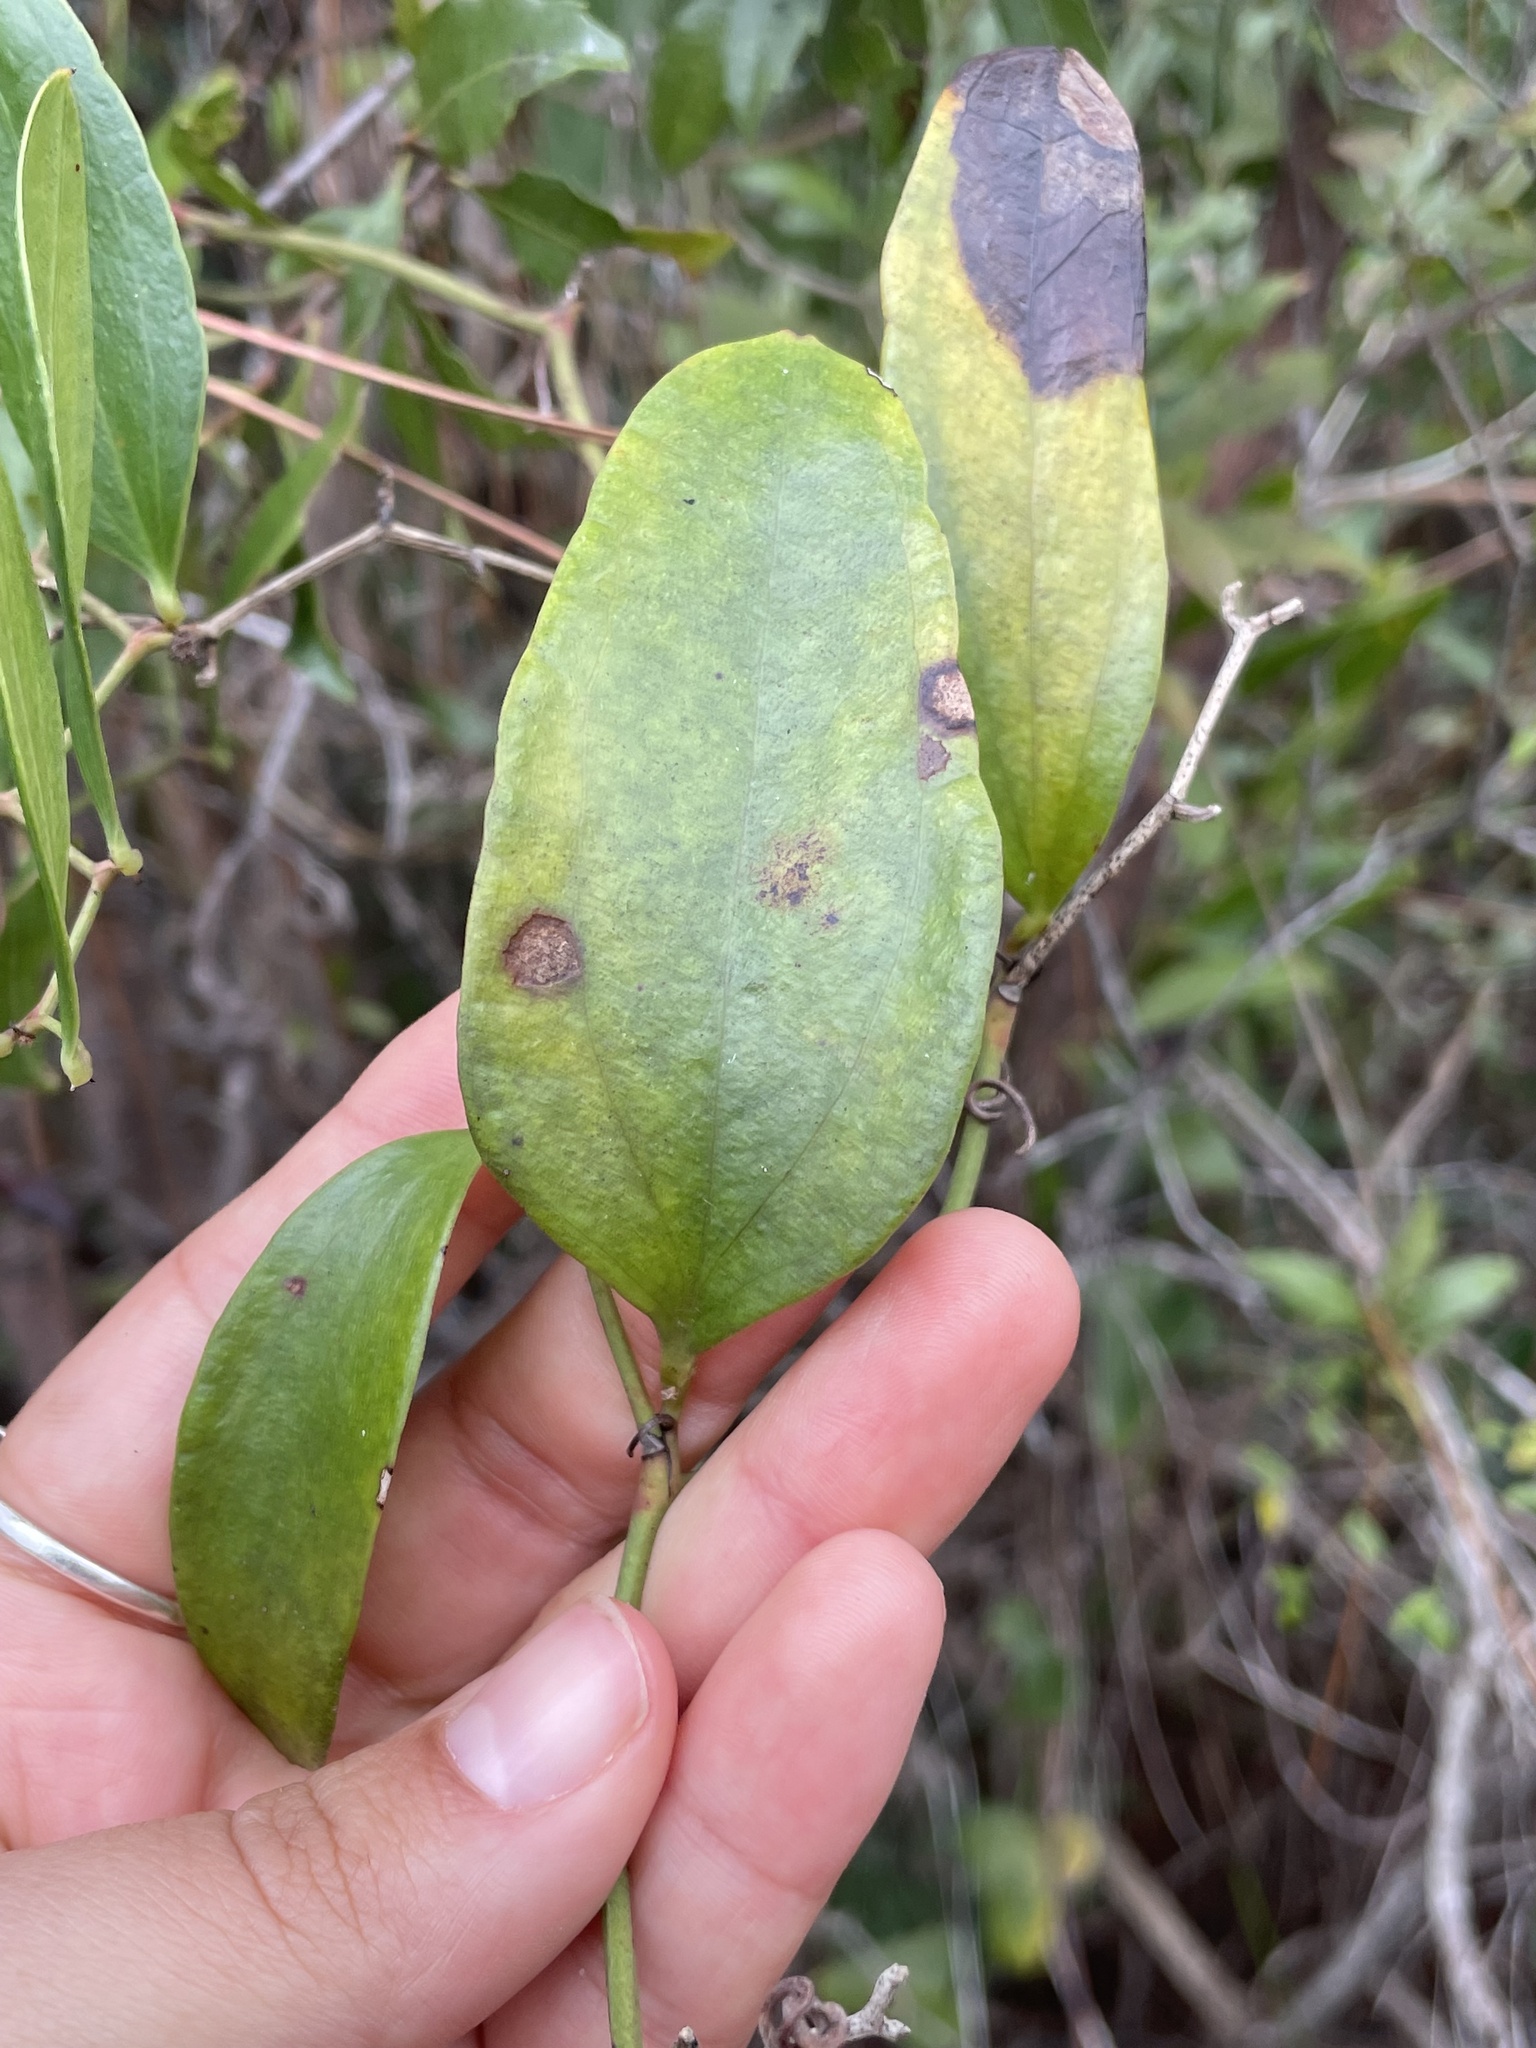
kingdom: Plantae
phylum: Tracheophyta
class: Liliopsida
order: Liliales
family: Smilacaceae
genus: Smilax
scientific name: Smilax auriculata
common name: Wild bamboo
